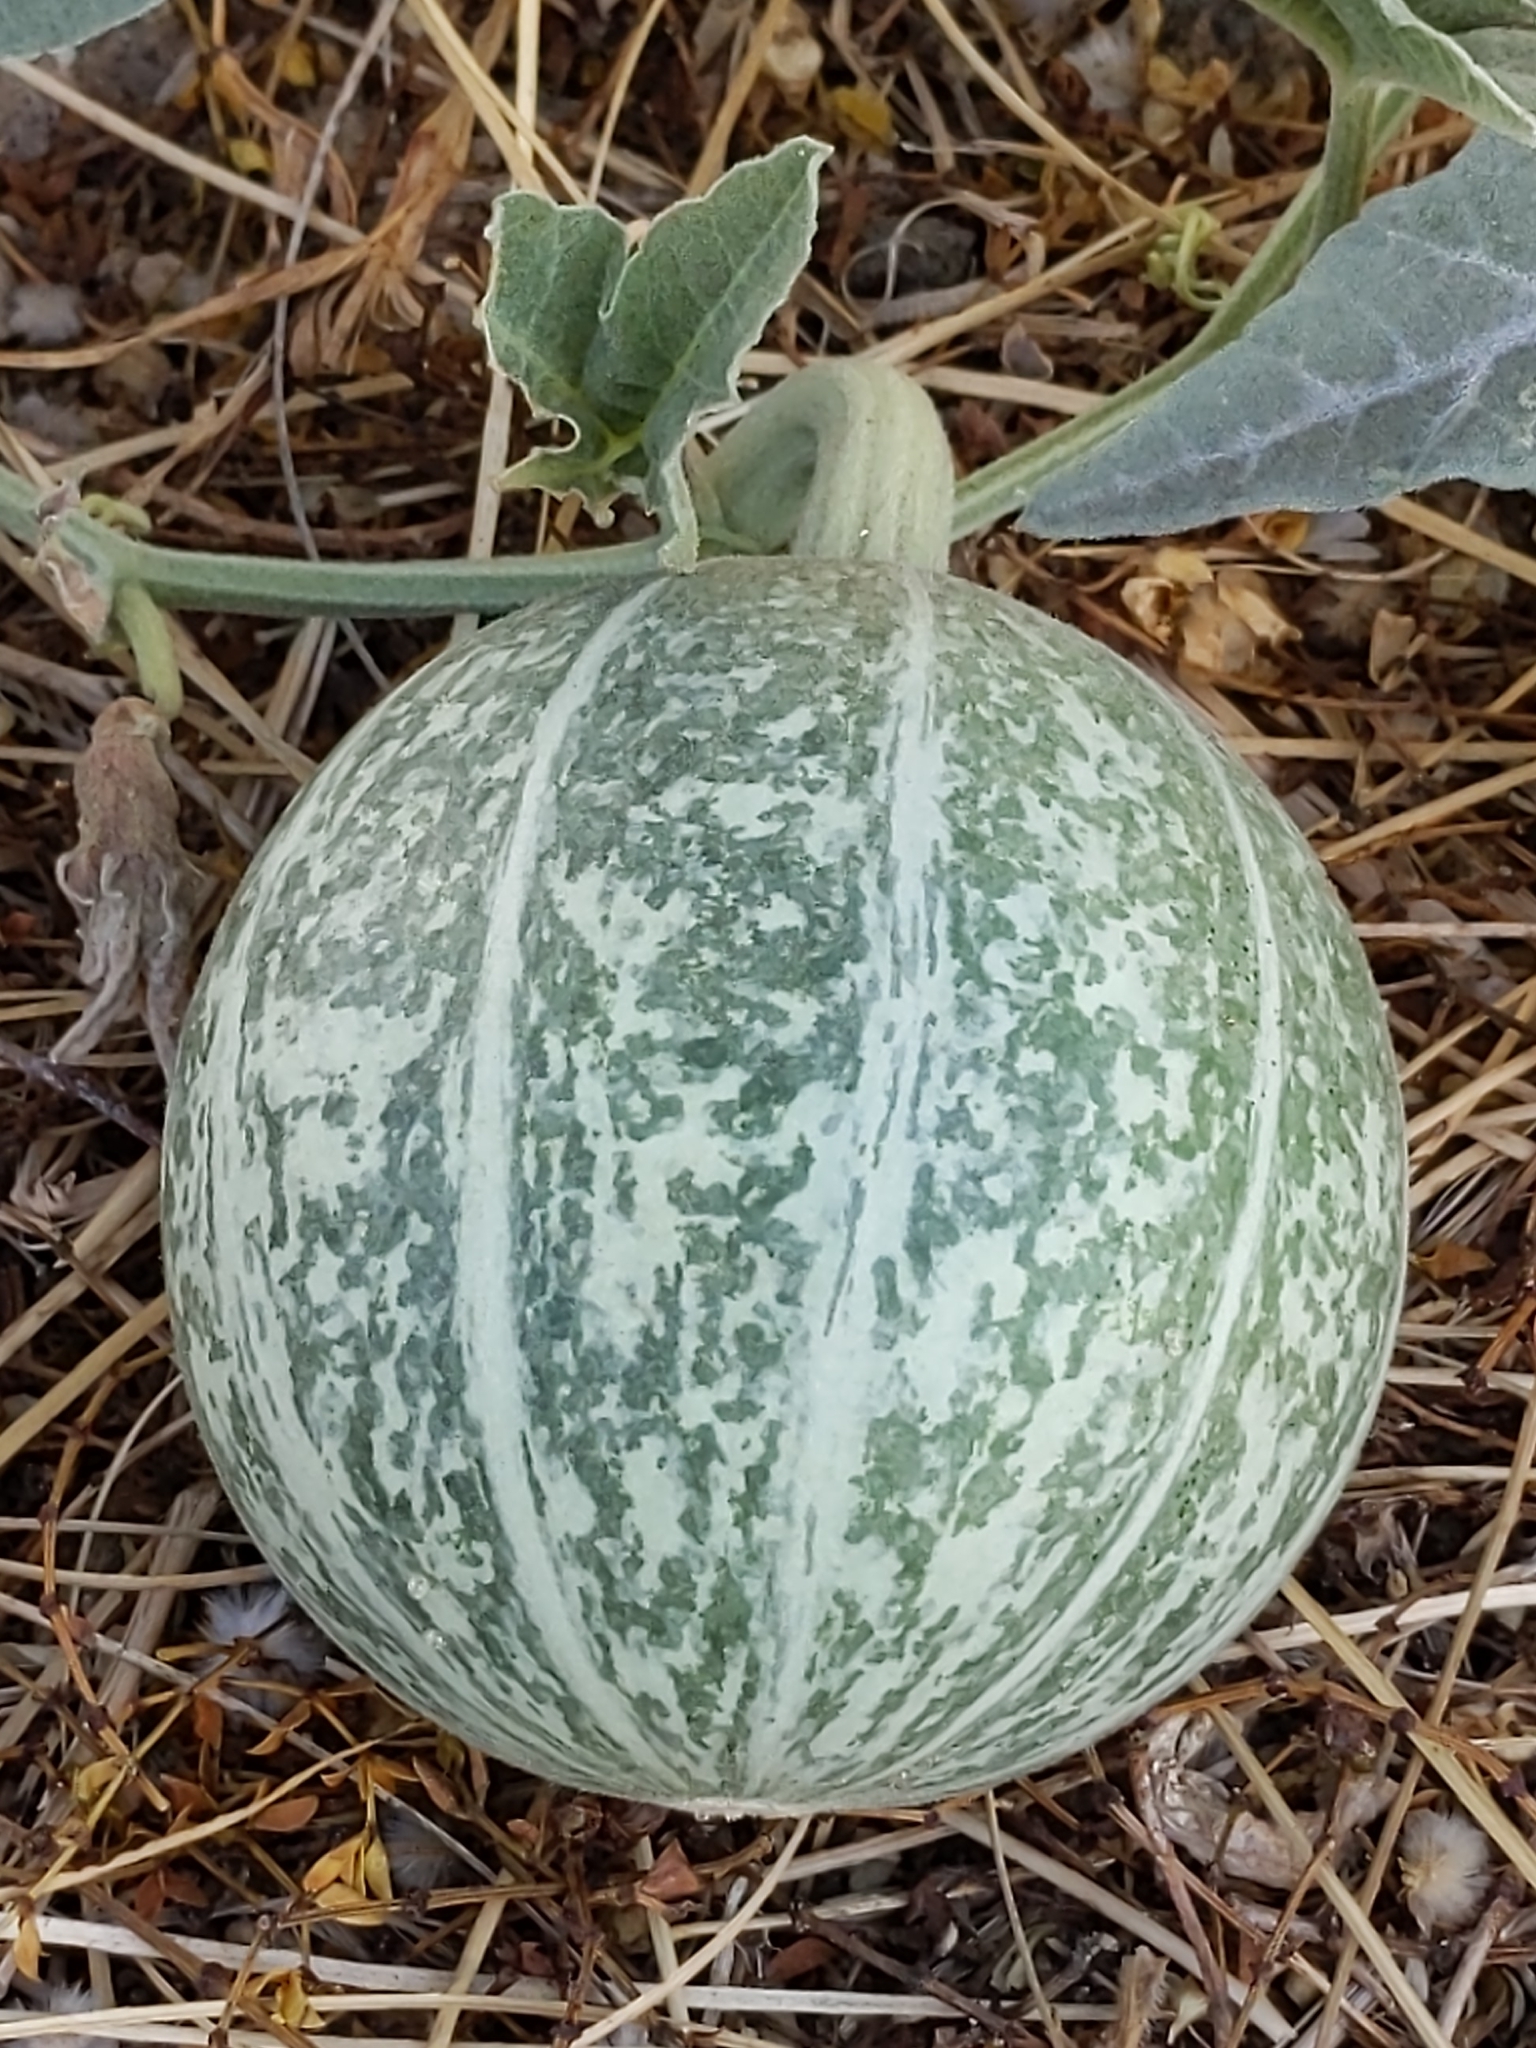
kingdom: Plantae
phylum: Tracheophyta
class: Magnoliopsida
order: Cucurbitales
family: Cucurbitaceae
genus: Cucurbita
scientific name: Cucurbita palmata
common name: Coyote-melon
